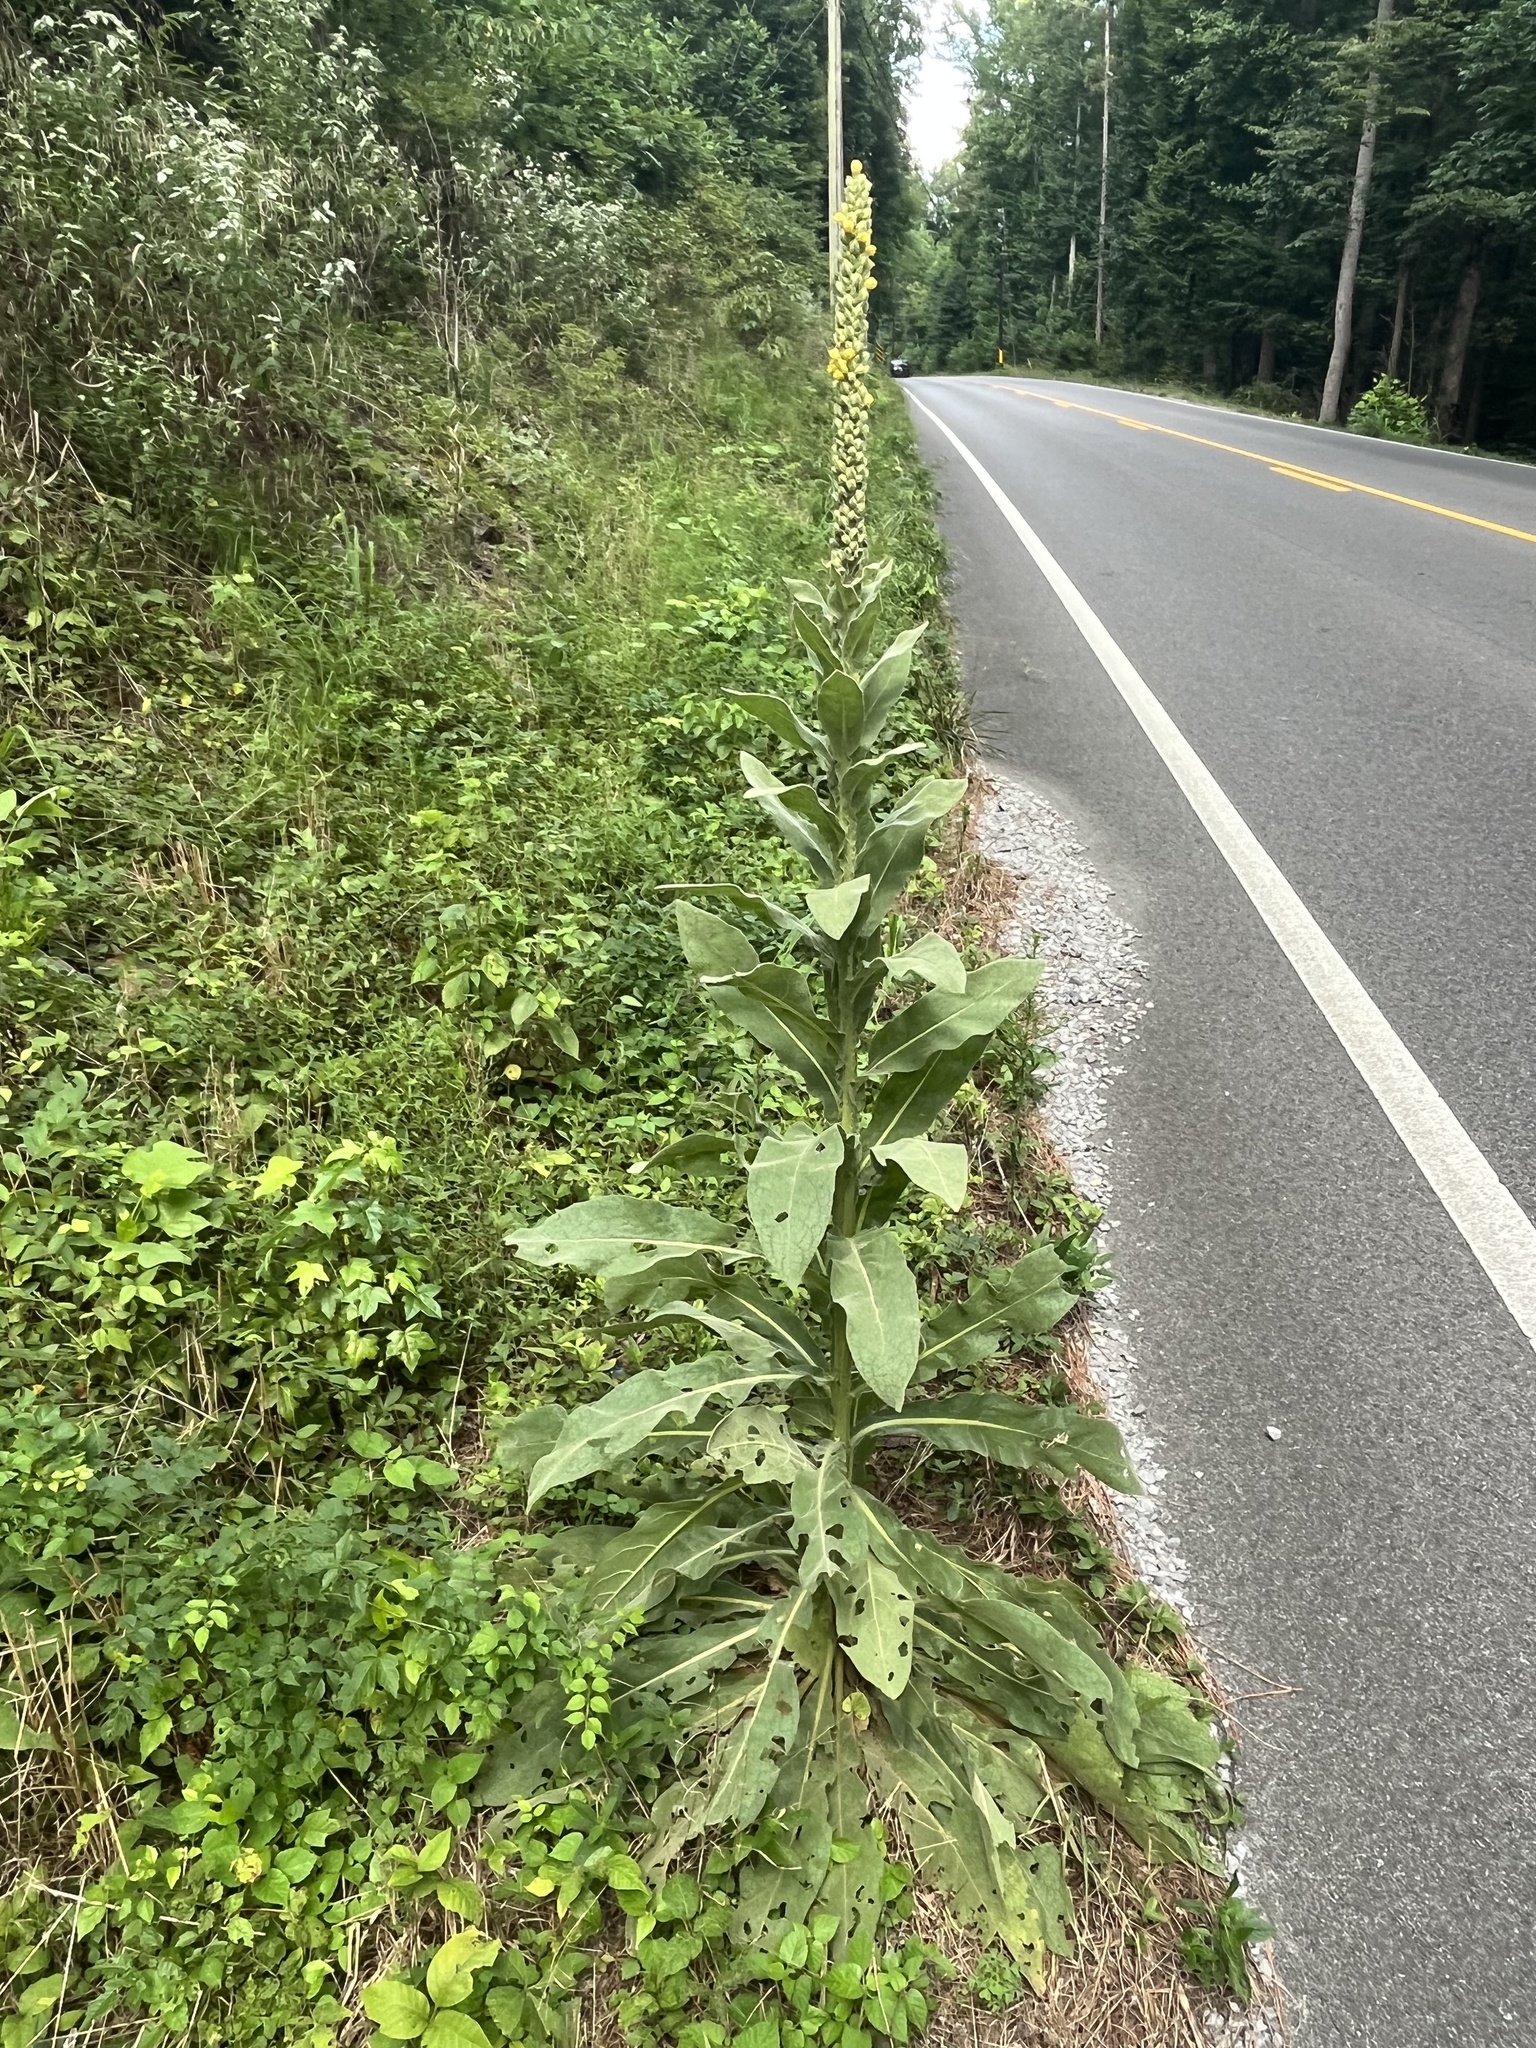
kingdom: Plantae
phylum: Tracheophyta
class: Magnoliopsida
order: Lamiales
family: Scrophulariaceae
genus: Verbascum
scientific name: Verbascum thapsus
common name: Common mullein
